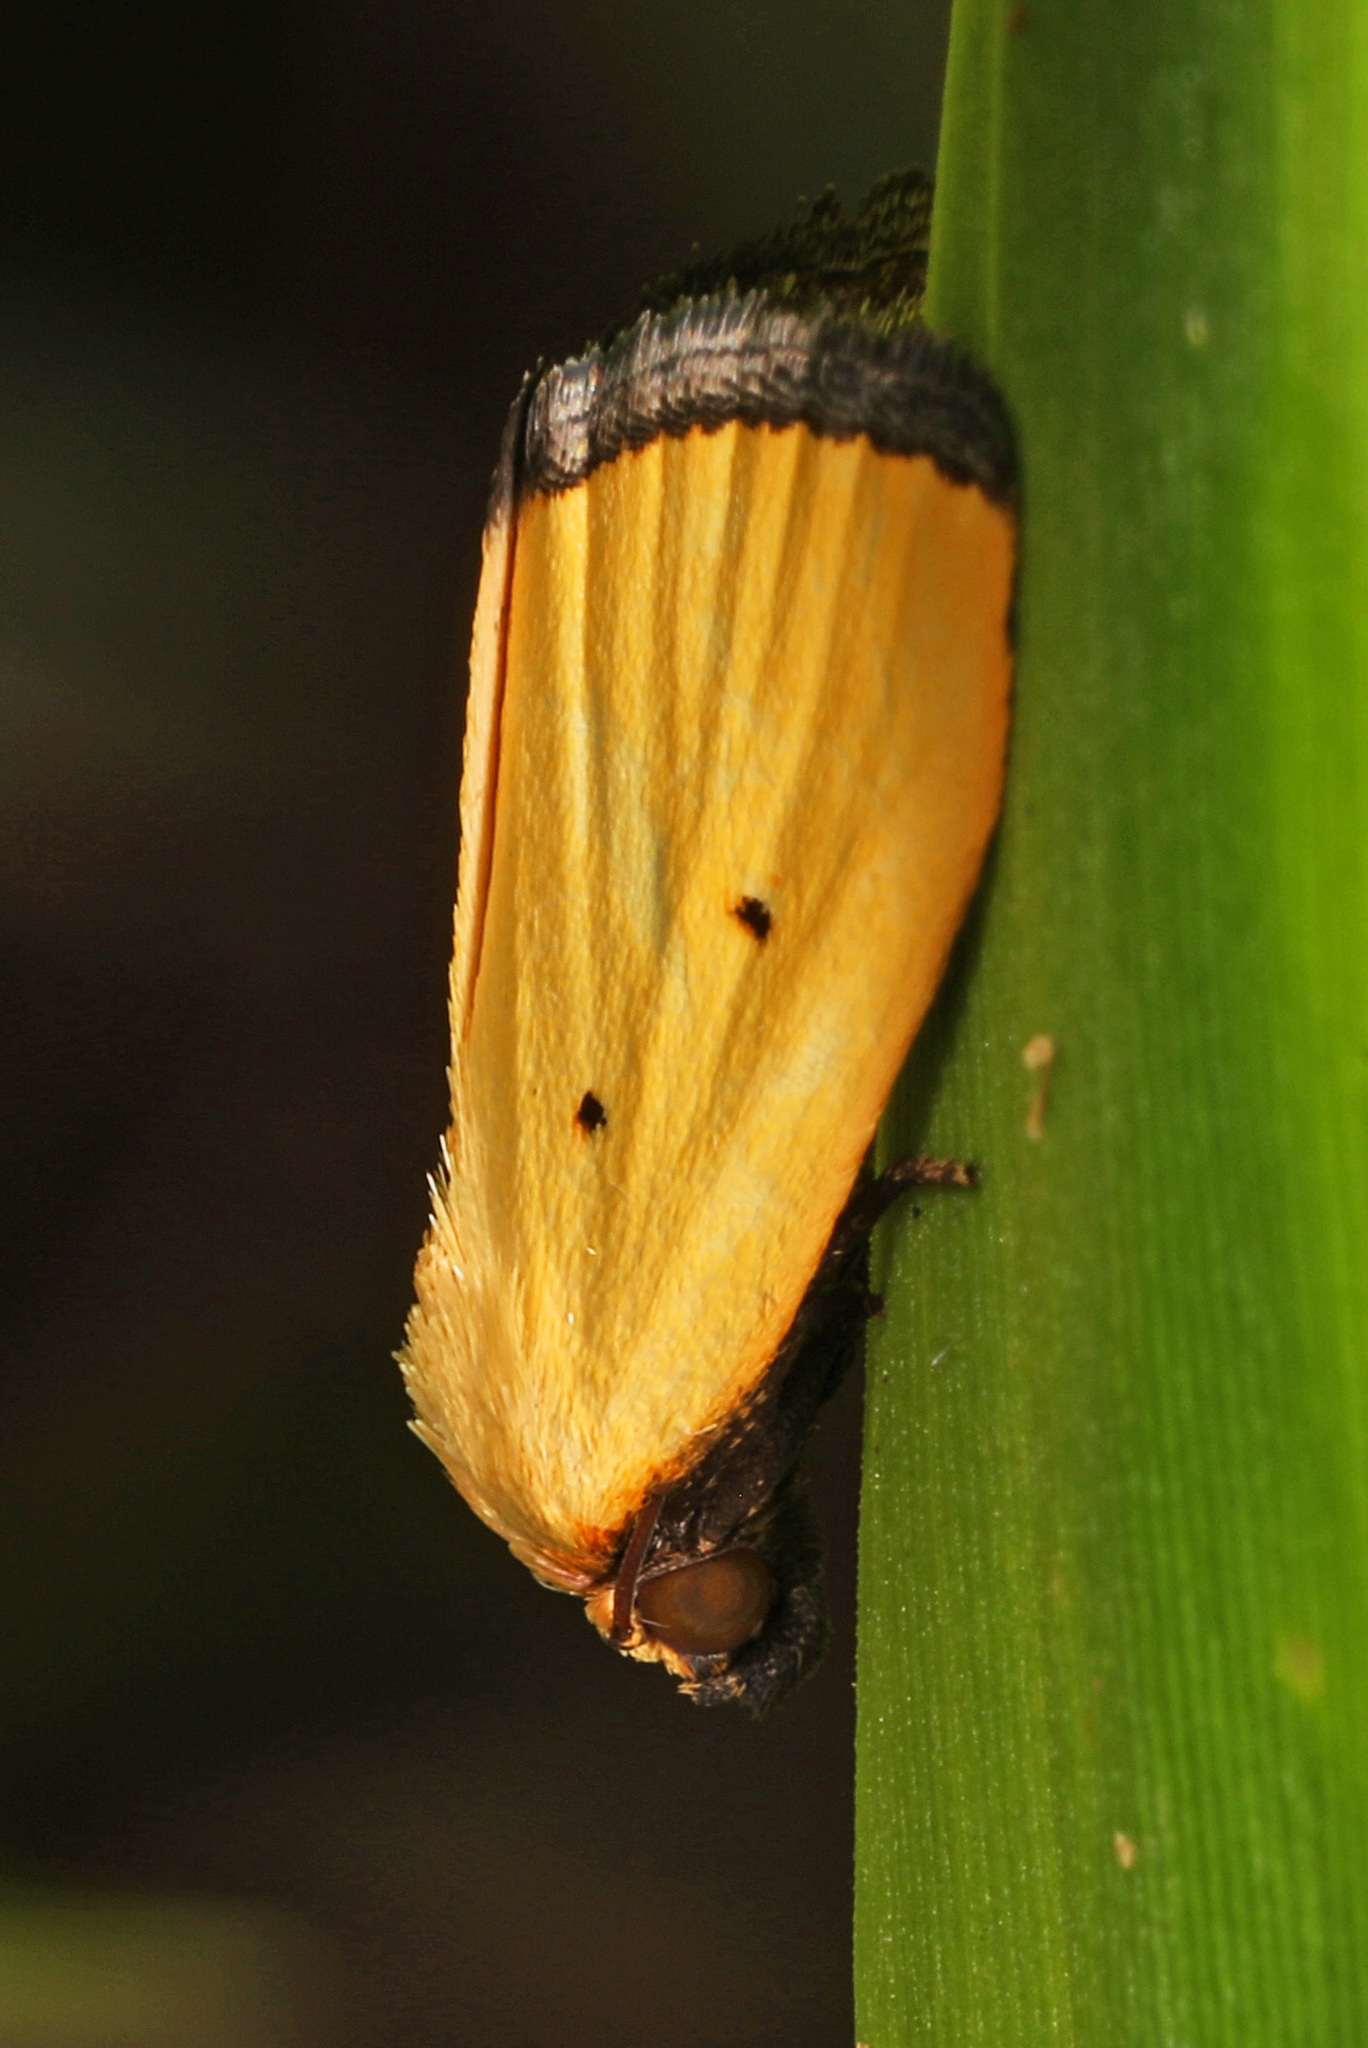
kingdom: Animalia
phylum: Arthropoda
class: Insecta
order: Lepidoptera
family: Noctuidae
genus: Marimatha
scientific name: Marimatha nigrofimbria
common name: Black-bordered lemon moth
